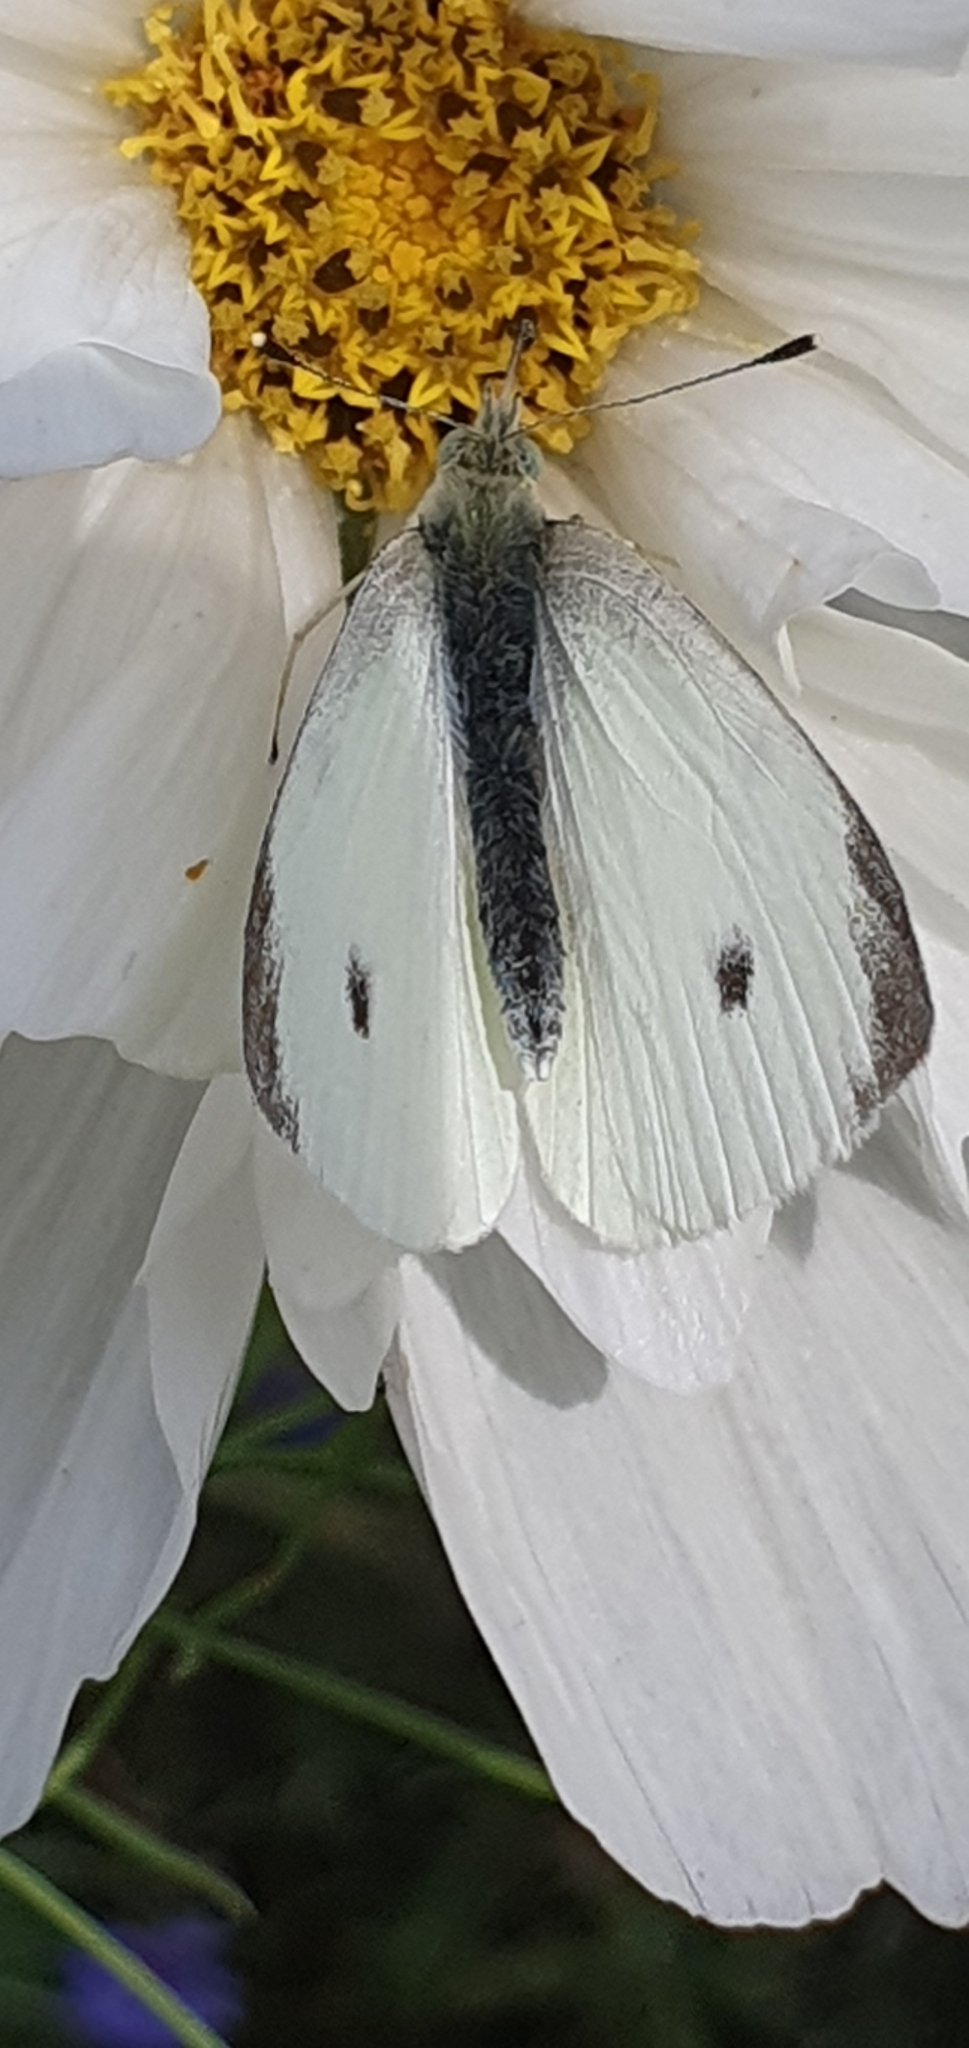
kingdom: Animalia
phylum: Arthropoda
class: Insecta
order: Lepidoptera
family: Pieridae
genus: Pieris
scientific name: Pieris rapae
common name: Small white
